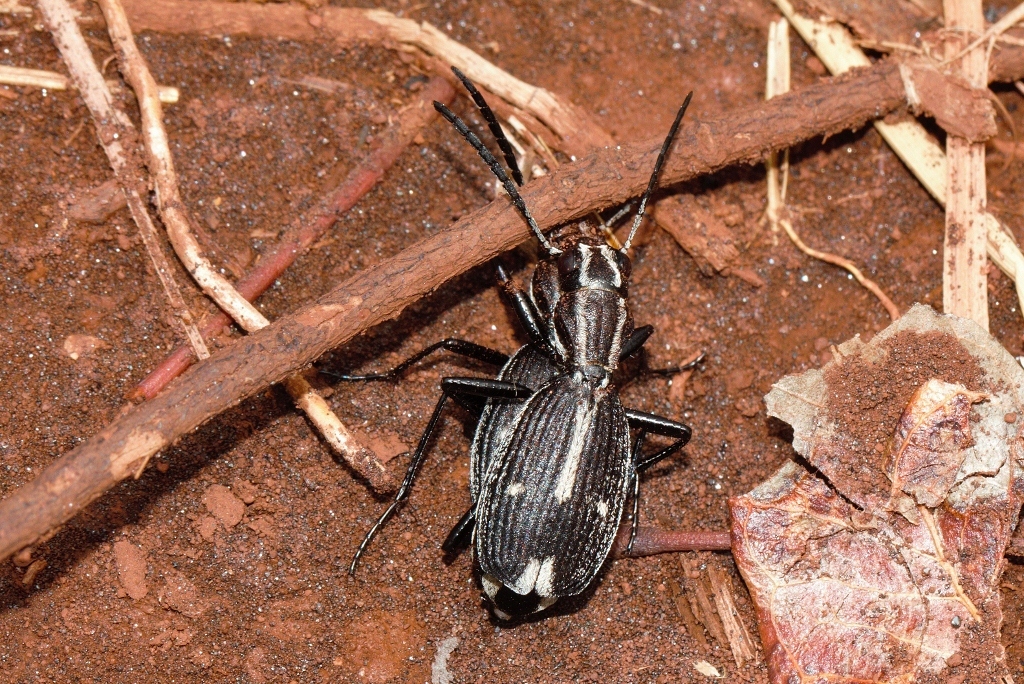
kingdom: Animalia
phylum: Arthropoda
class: Insecta
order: Coleoptera
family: Carabidae
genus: Piezia
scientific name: Piezia mashuna
